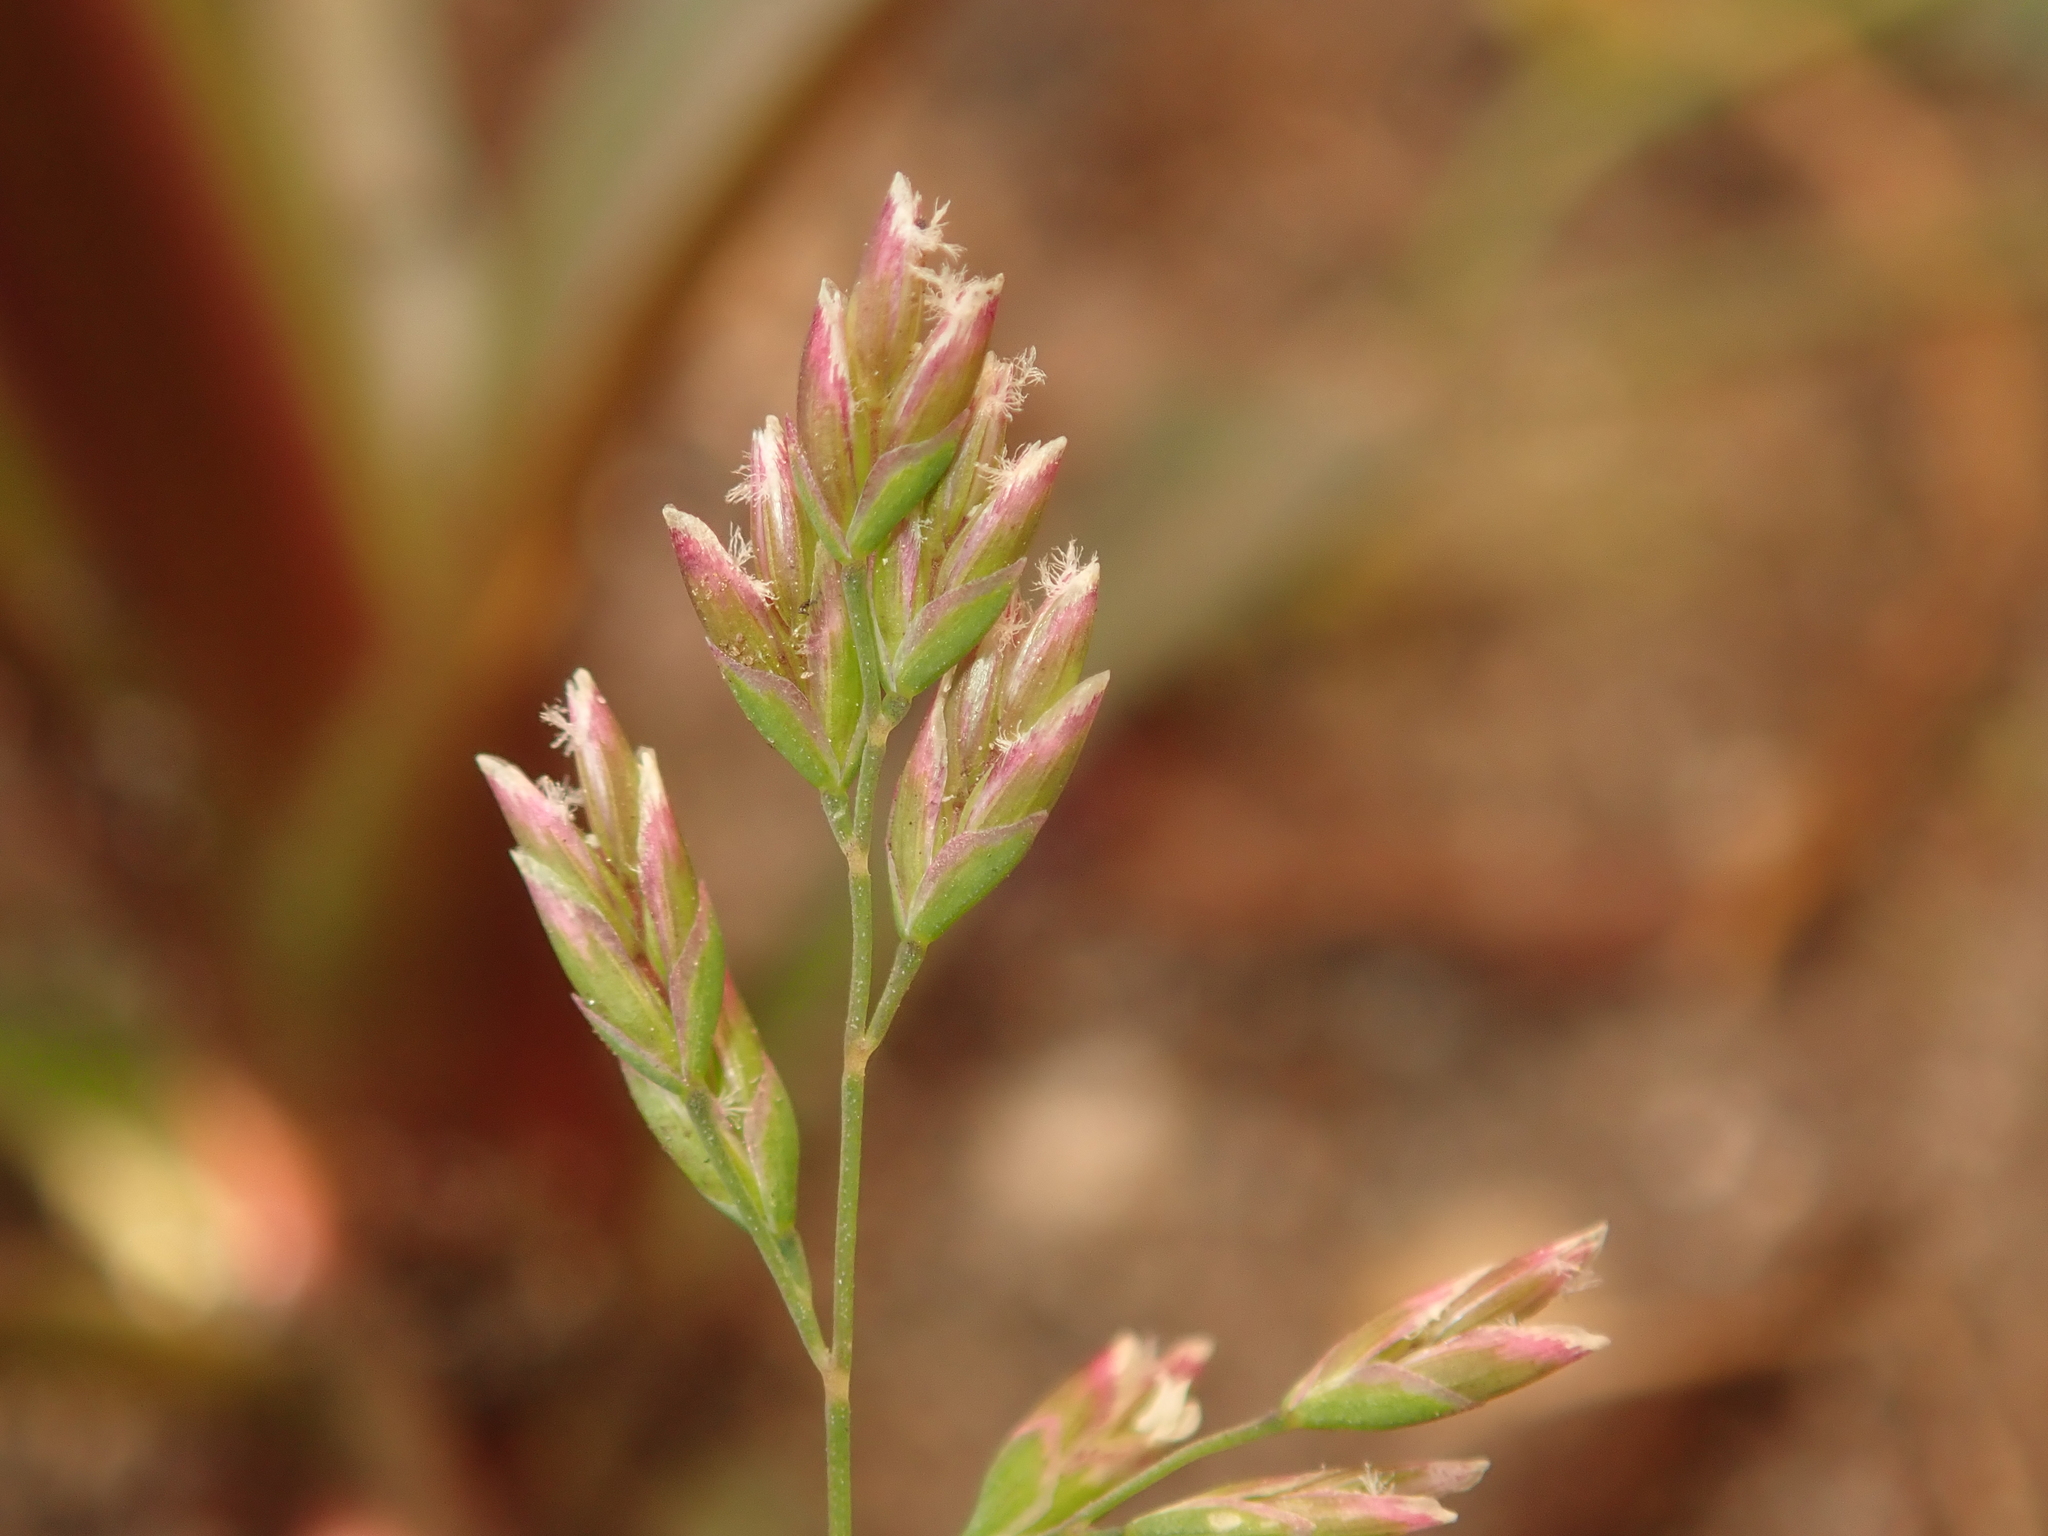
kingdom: Plantae
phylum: Tracheophyta
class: Liliopsida
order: Poales
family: Poaceae
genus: Poa
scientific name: Poa annua
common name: Annual bluegrass
